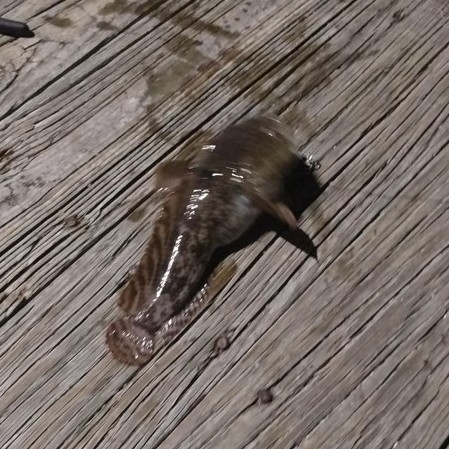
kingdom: Animalia
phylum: Chordata
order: Batrachoidiformes
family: Batrachoididae
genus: Opsanus
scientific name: Opsanus tau
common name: Oyster toadfish
